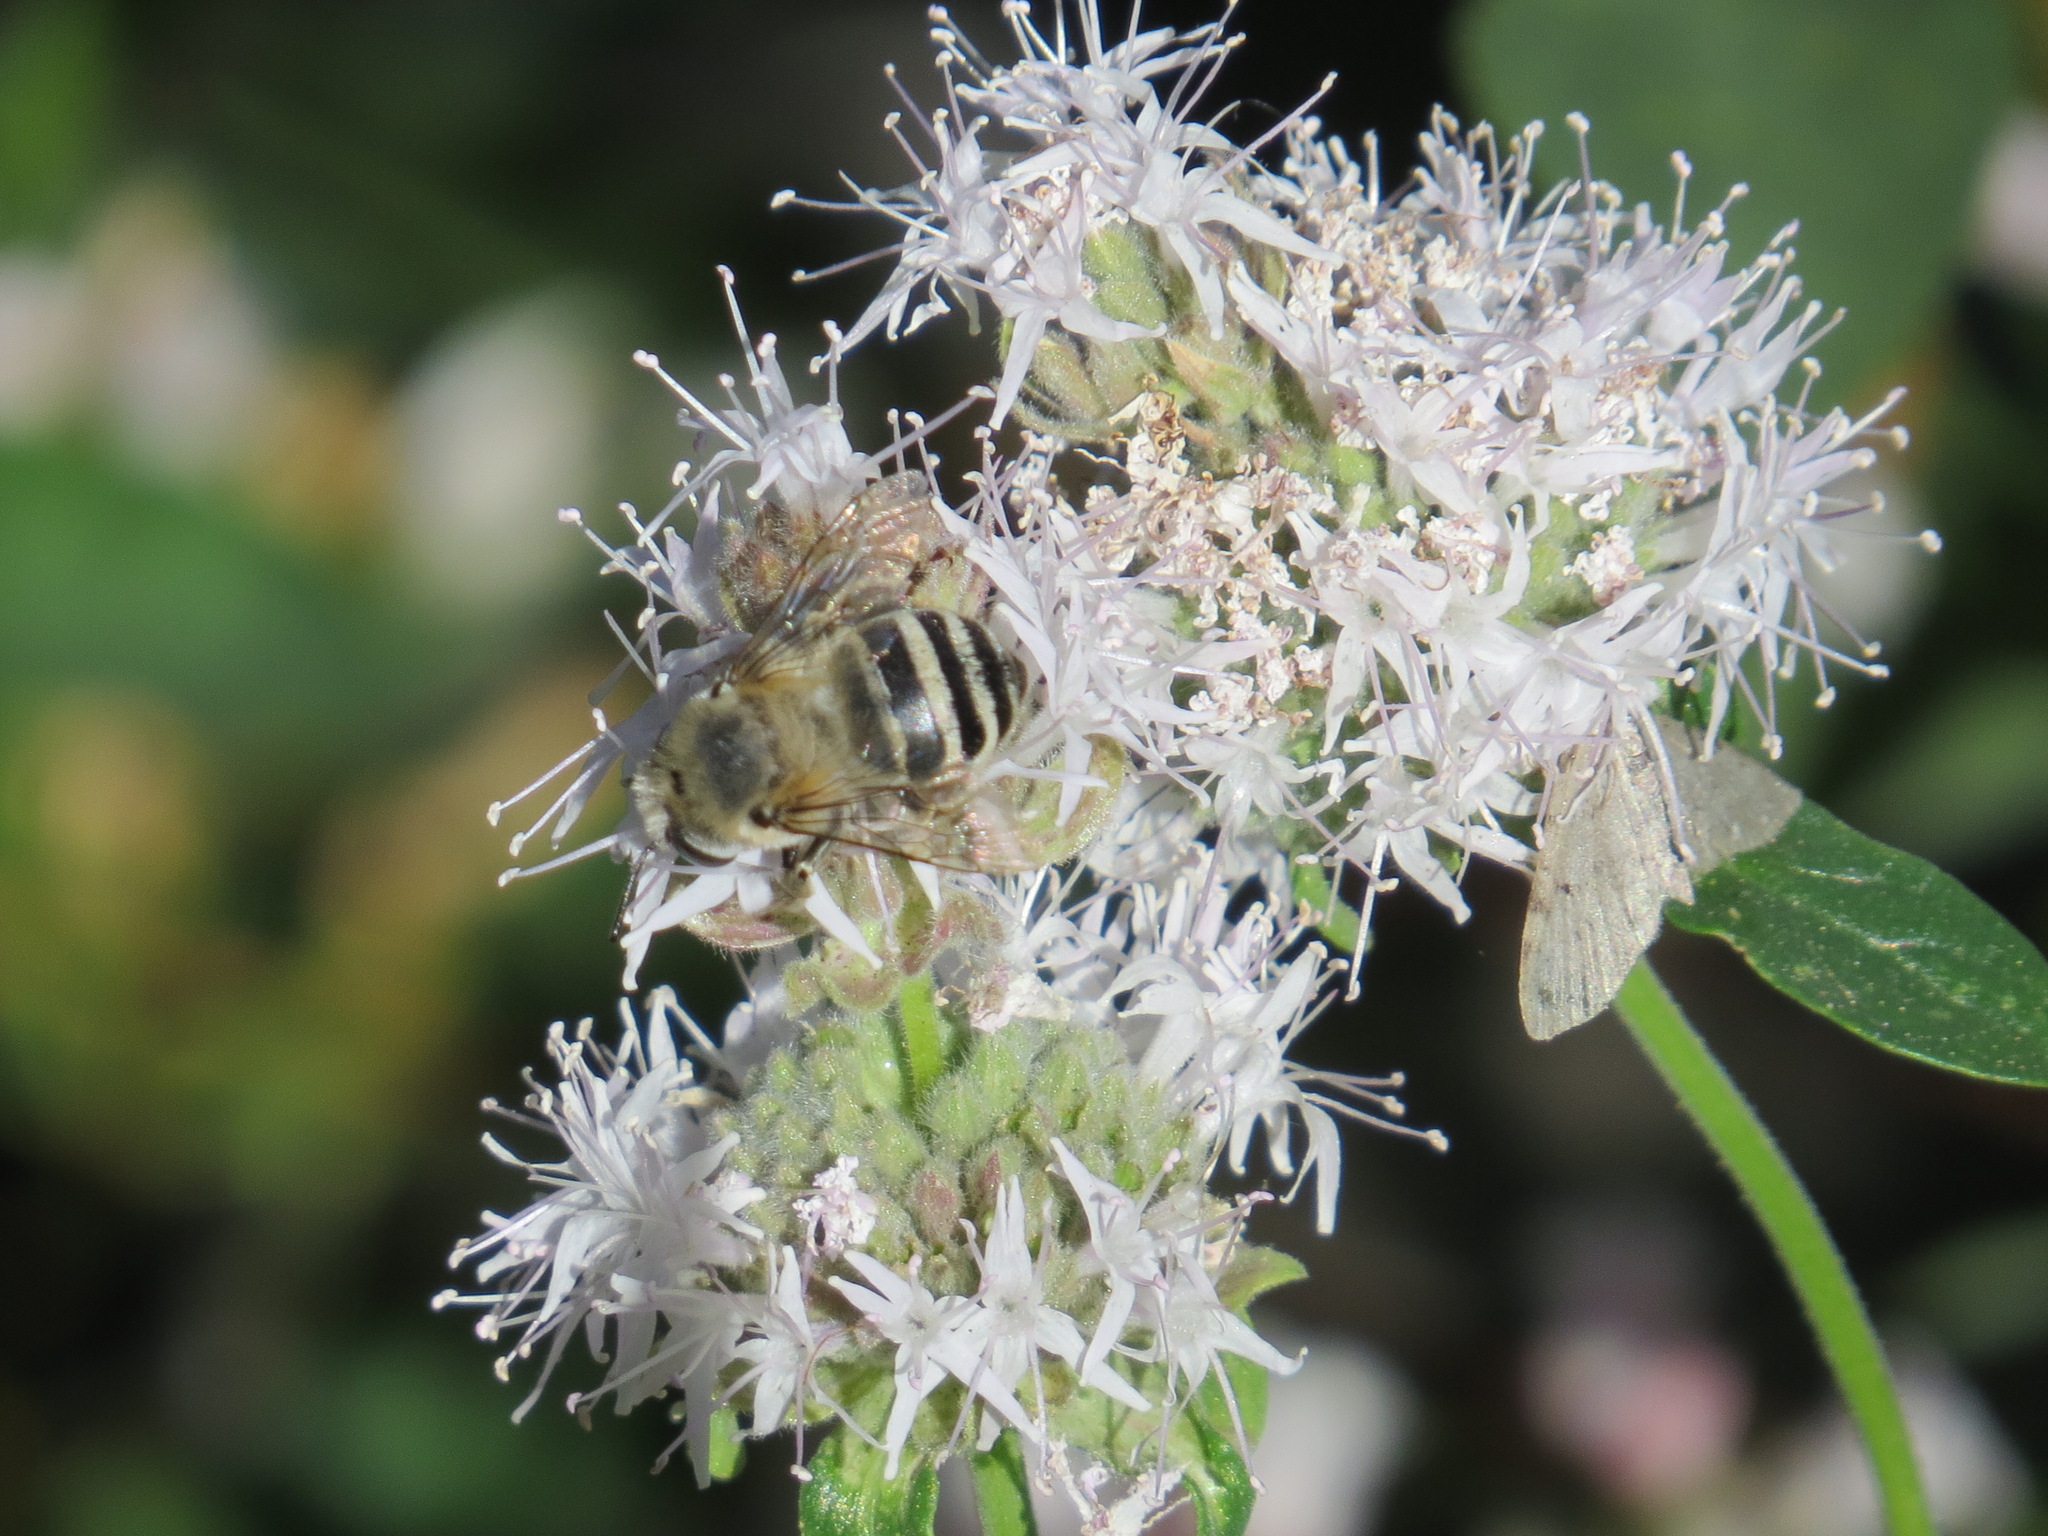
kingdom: Animalia
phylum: Arthropoda
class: Insecta
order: Hymenoptera
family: Apidae
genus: Anthophora
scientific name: Anthophora urbana
